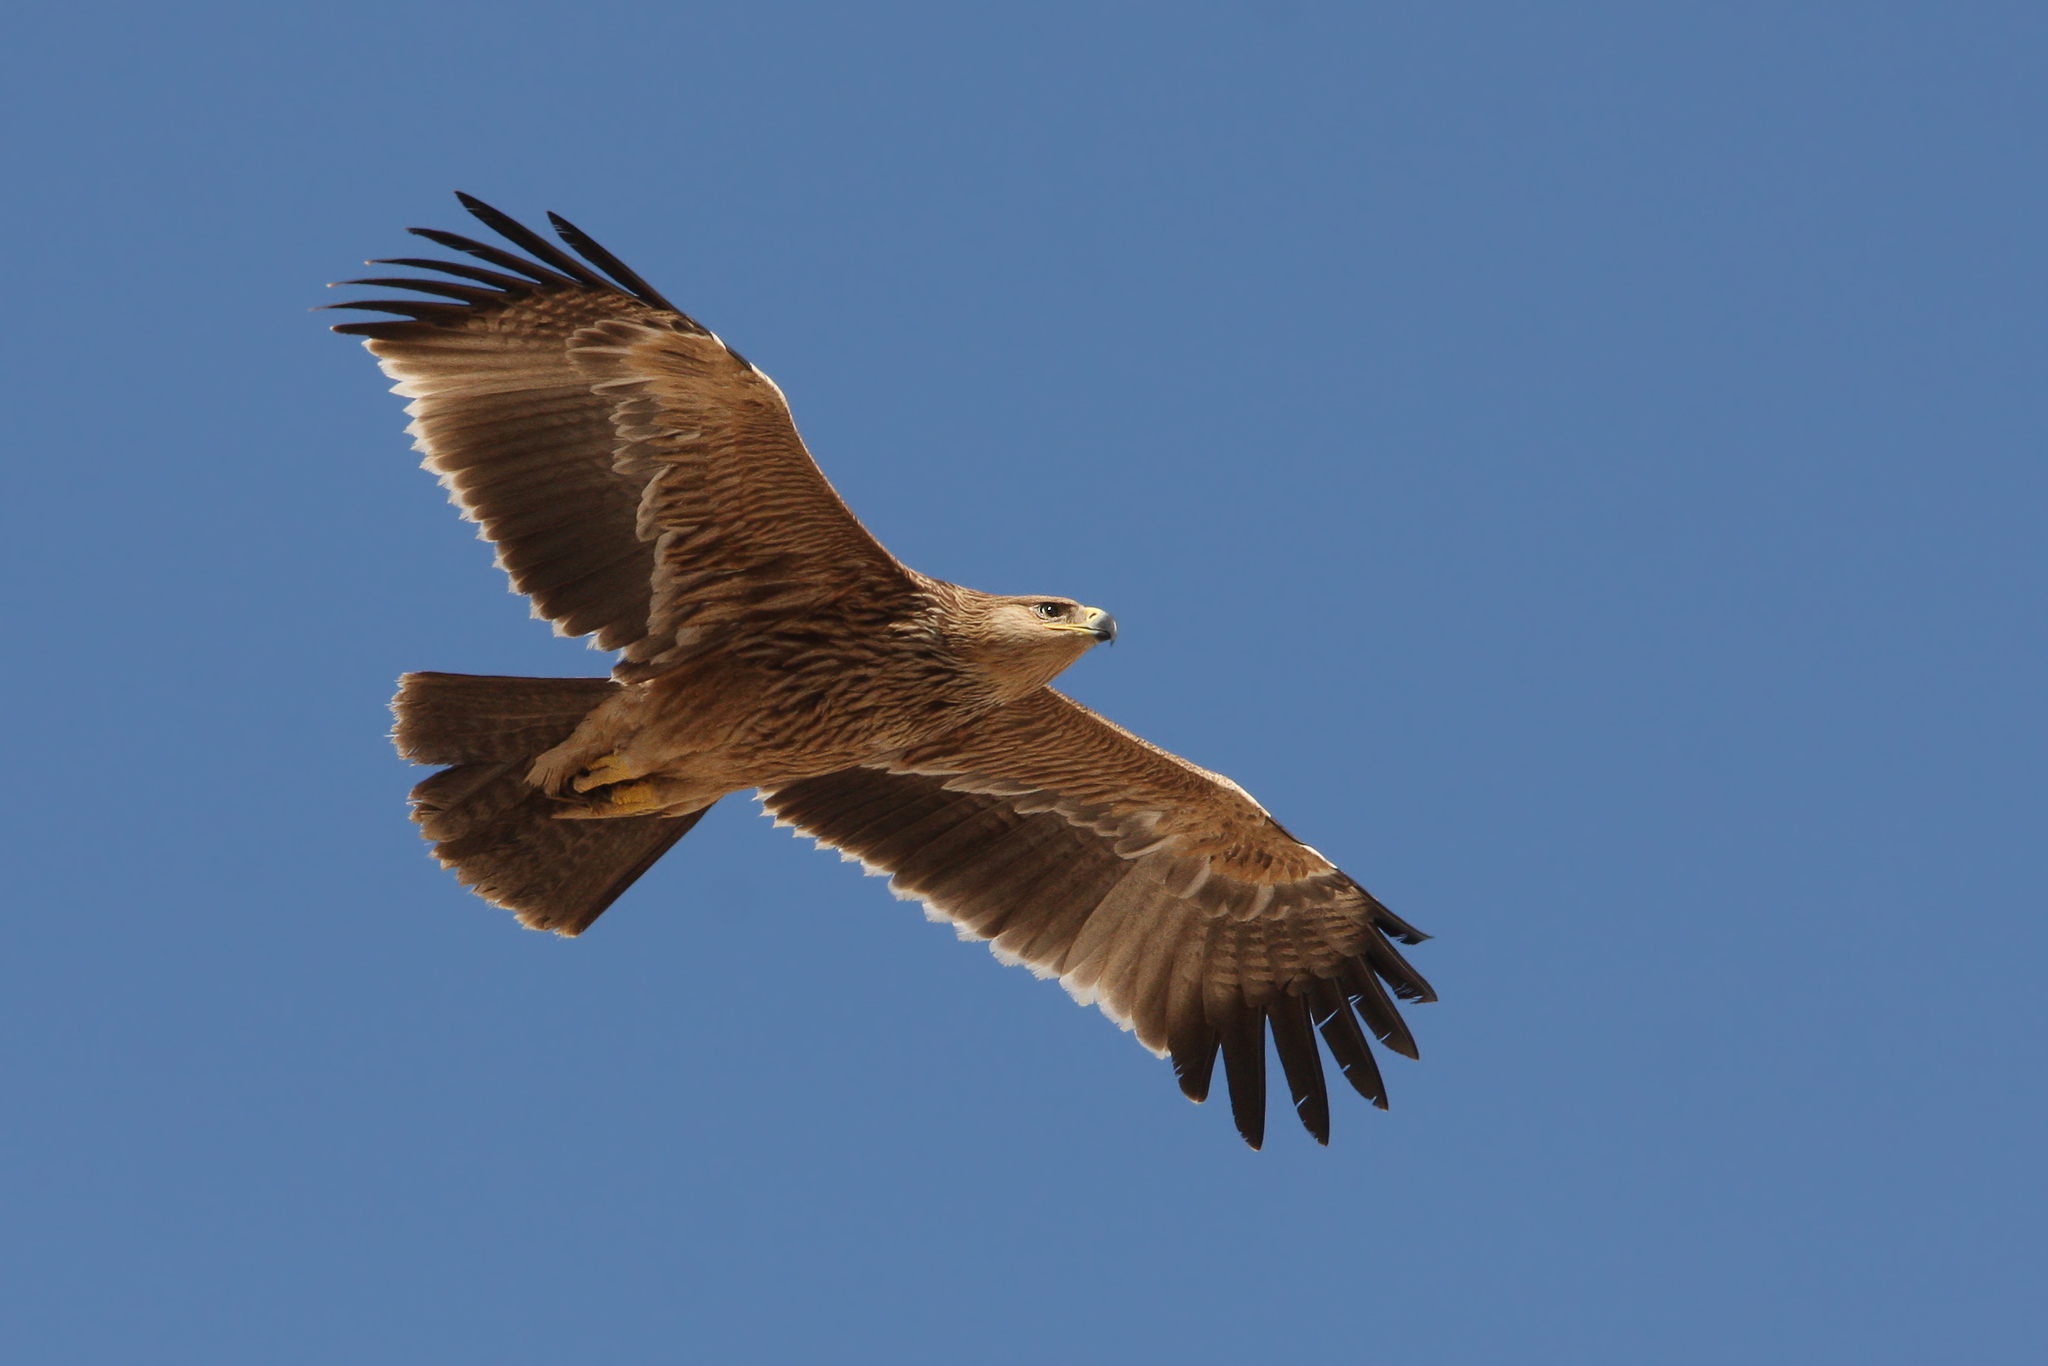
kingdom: Animalia
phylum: Chordata
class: Aves
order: Accipitriformes
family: Accipitridae
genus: Aquila
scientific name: Aquila heliaca
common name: Eastern imperial eagle
